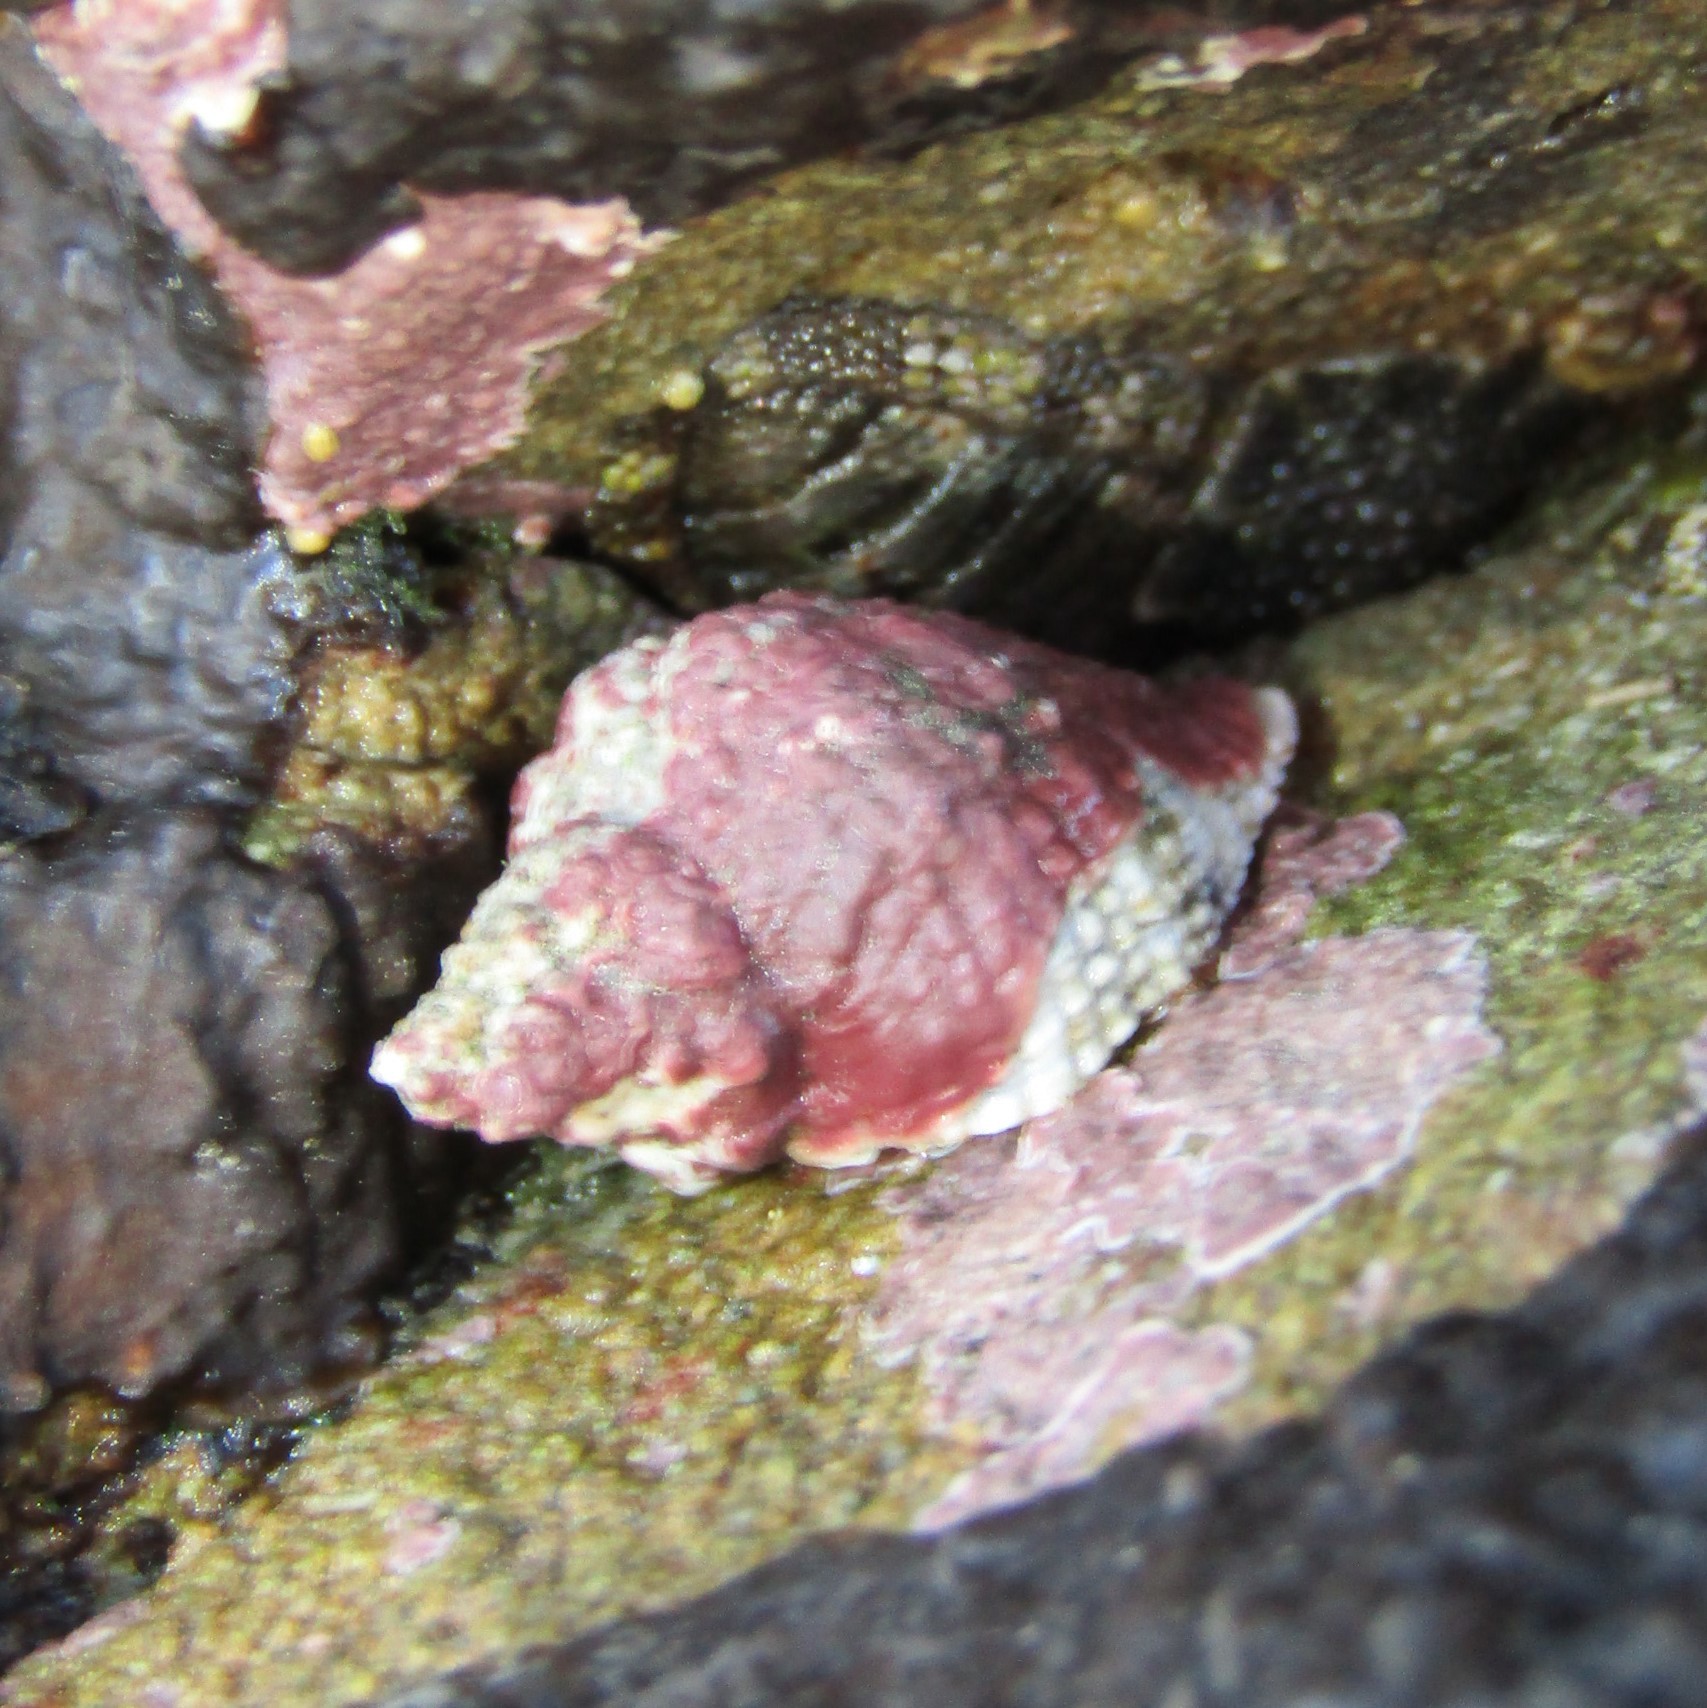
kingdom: Animalia
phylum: Mollusca
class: Gastropoda
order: Neogastropoda
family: Muricidae
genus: Haustrum
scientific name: Haustrum haustorium
